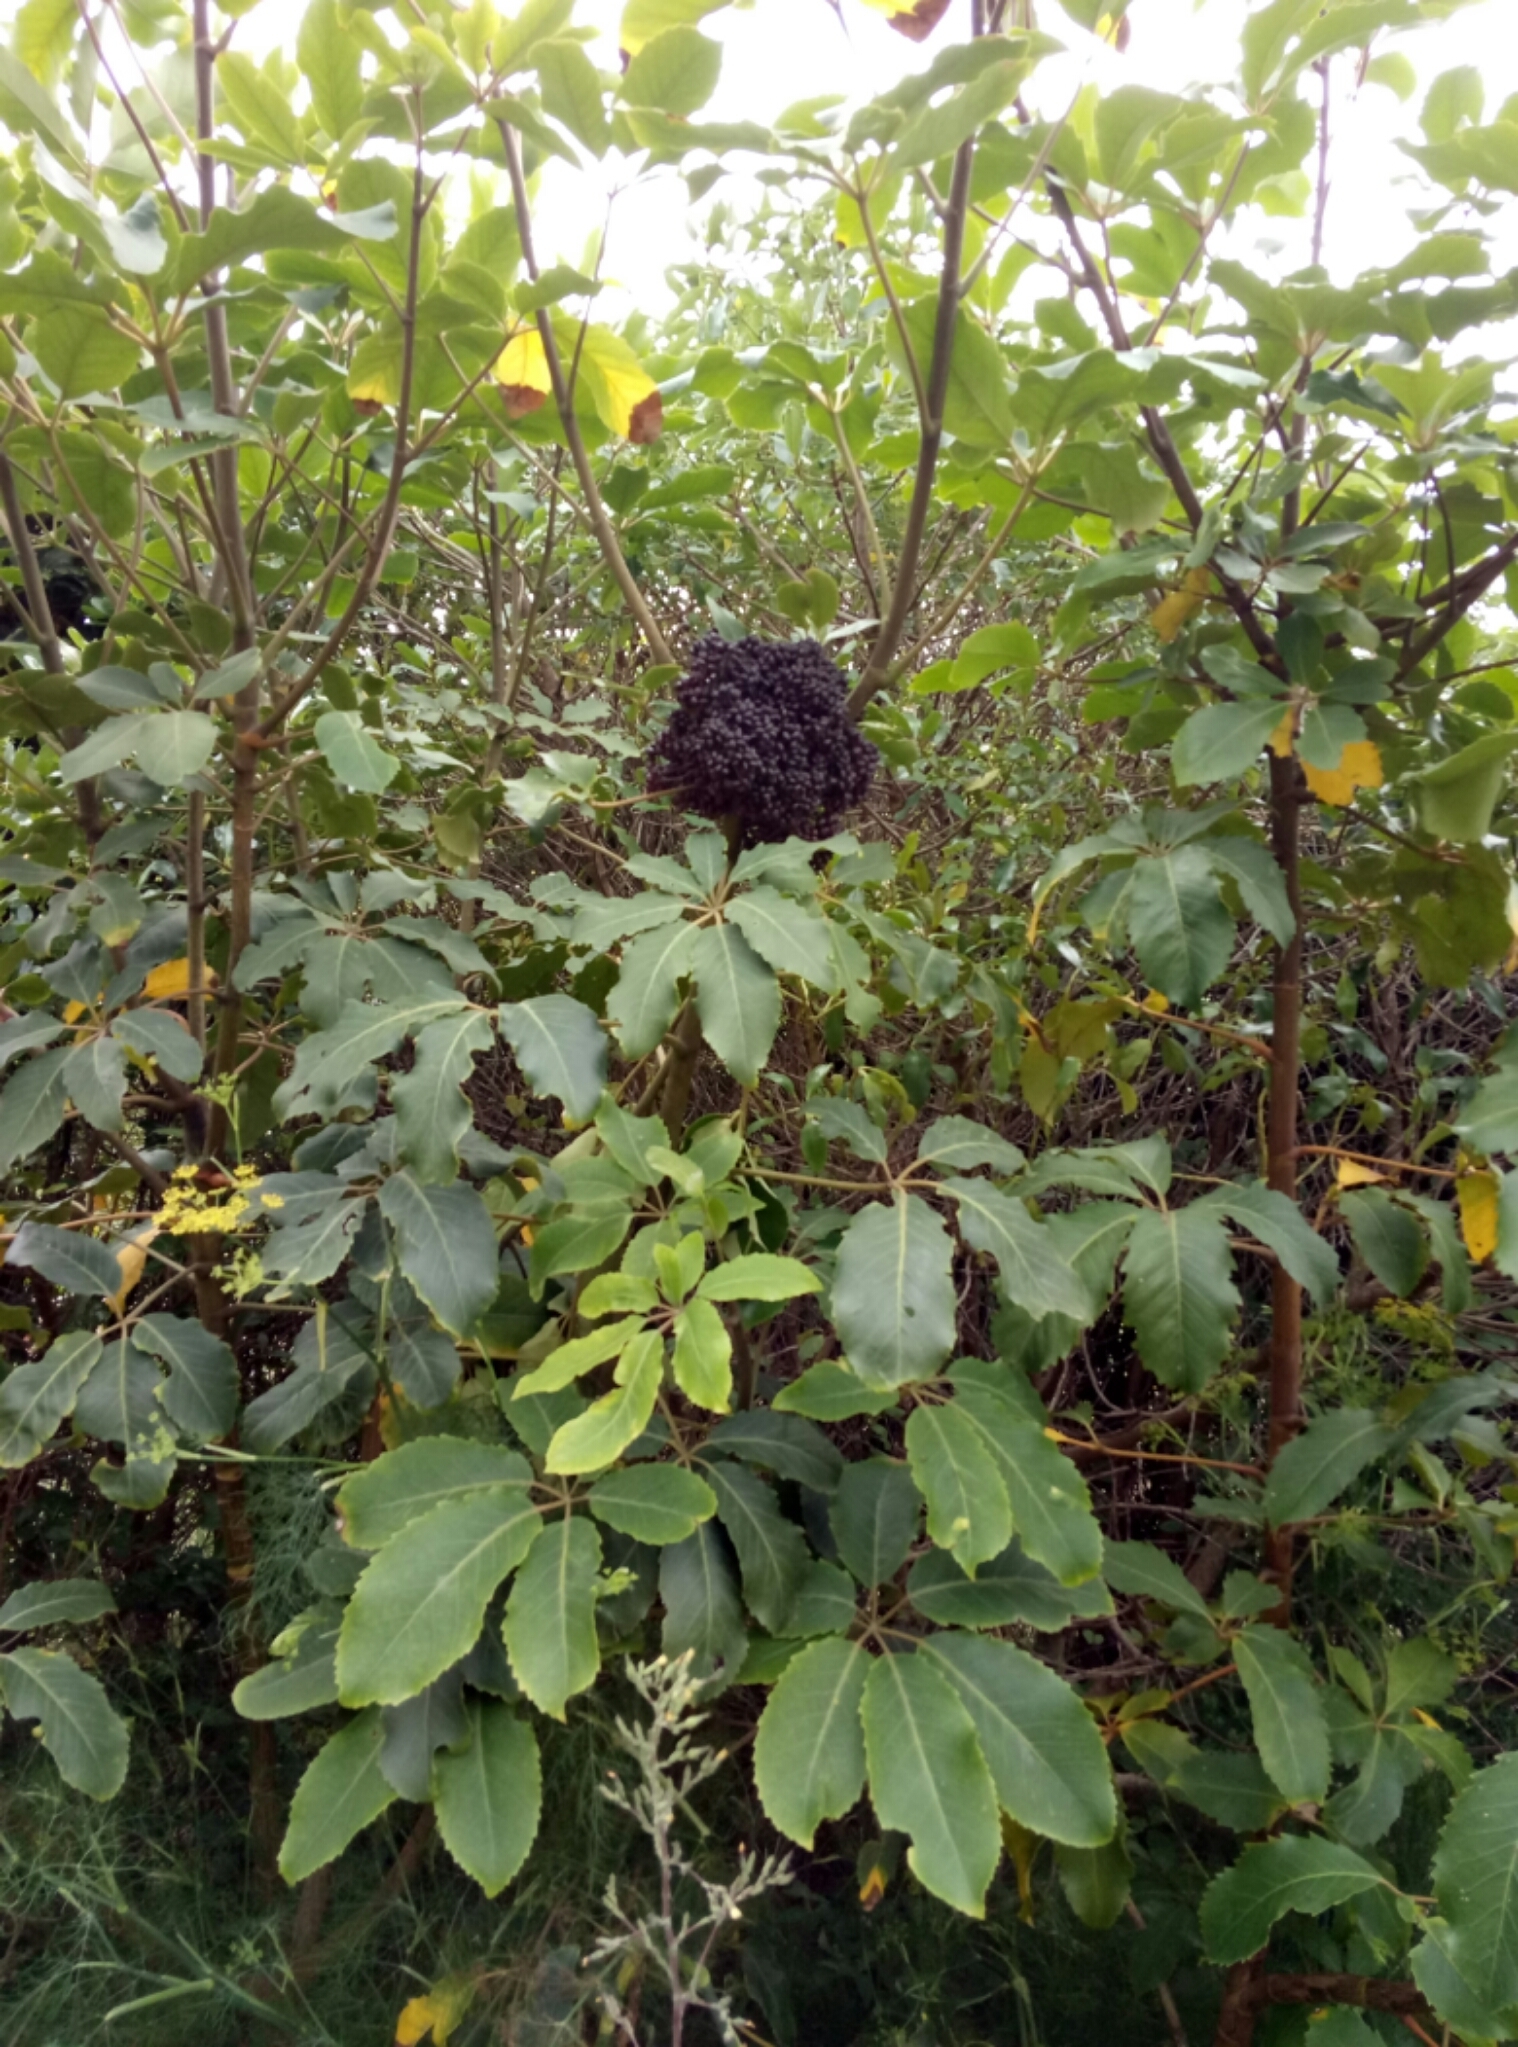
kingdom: Plantae
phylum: Tracheophyta
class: Magnoliopsida
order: Apiales
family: Araliaceae
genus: Neopanax
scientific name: Neopanax arboreus
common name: Five-fingers
